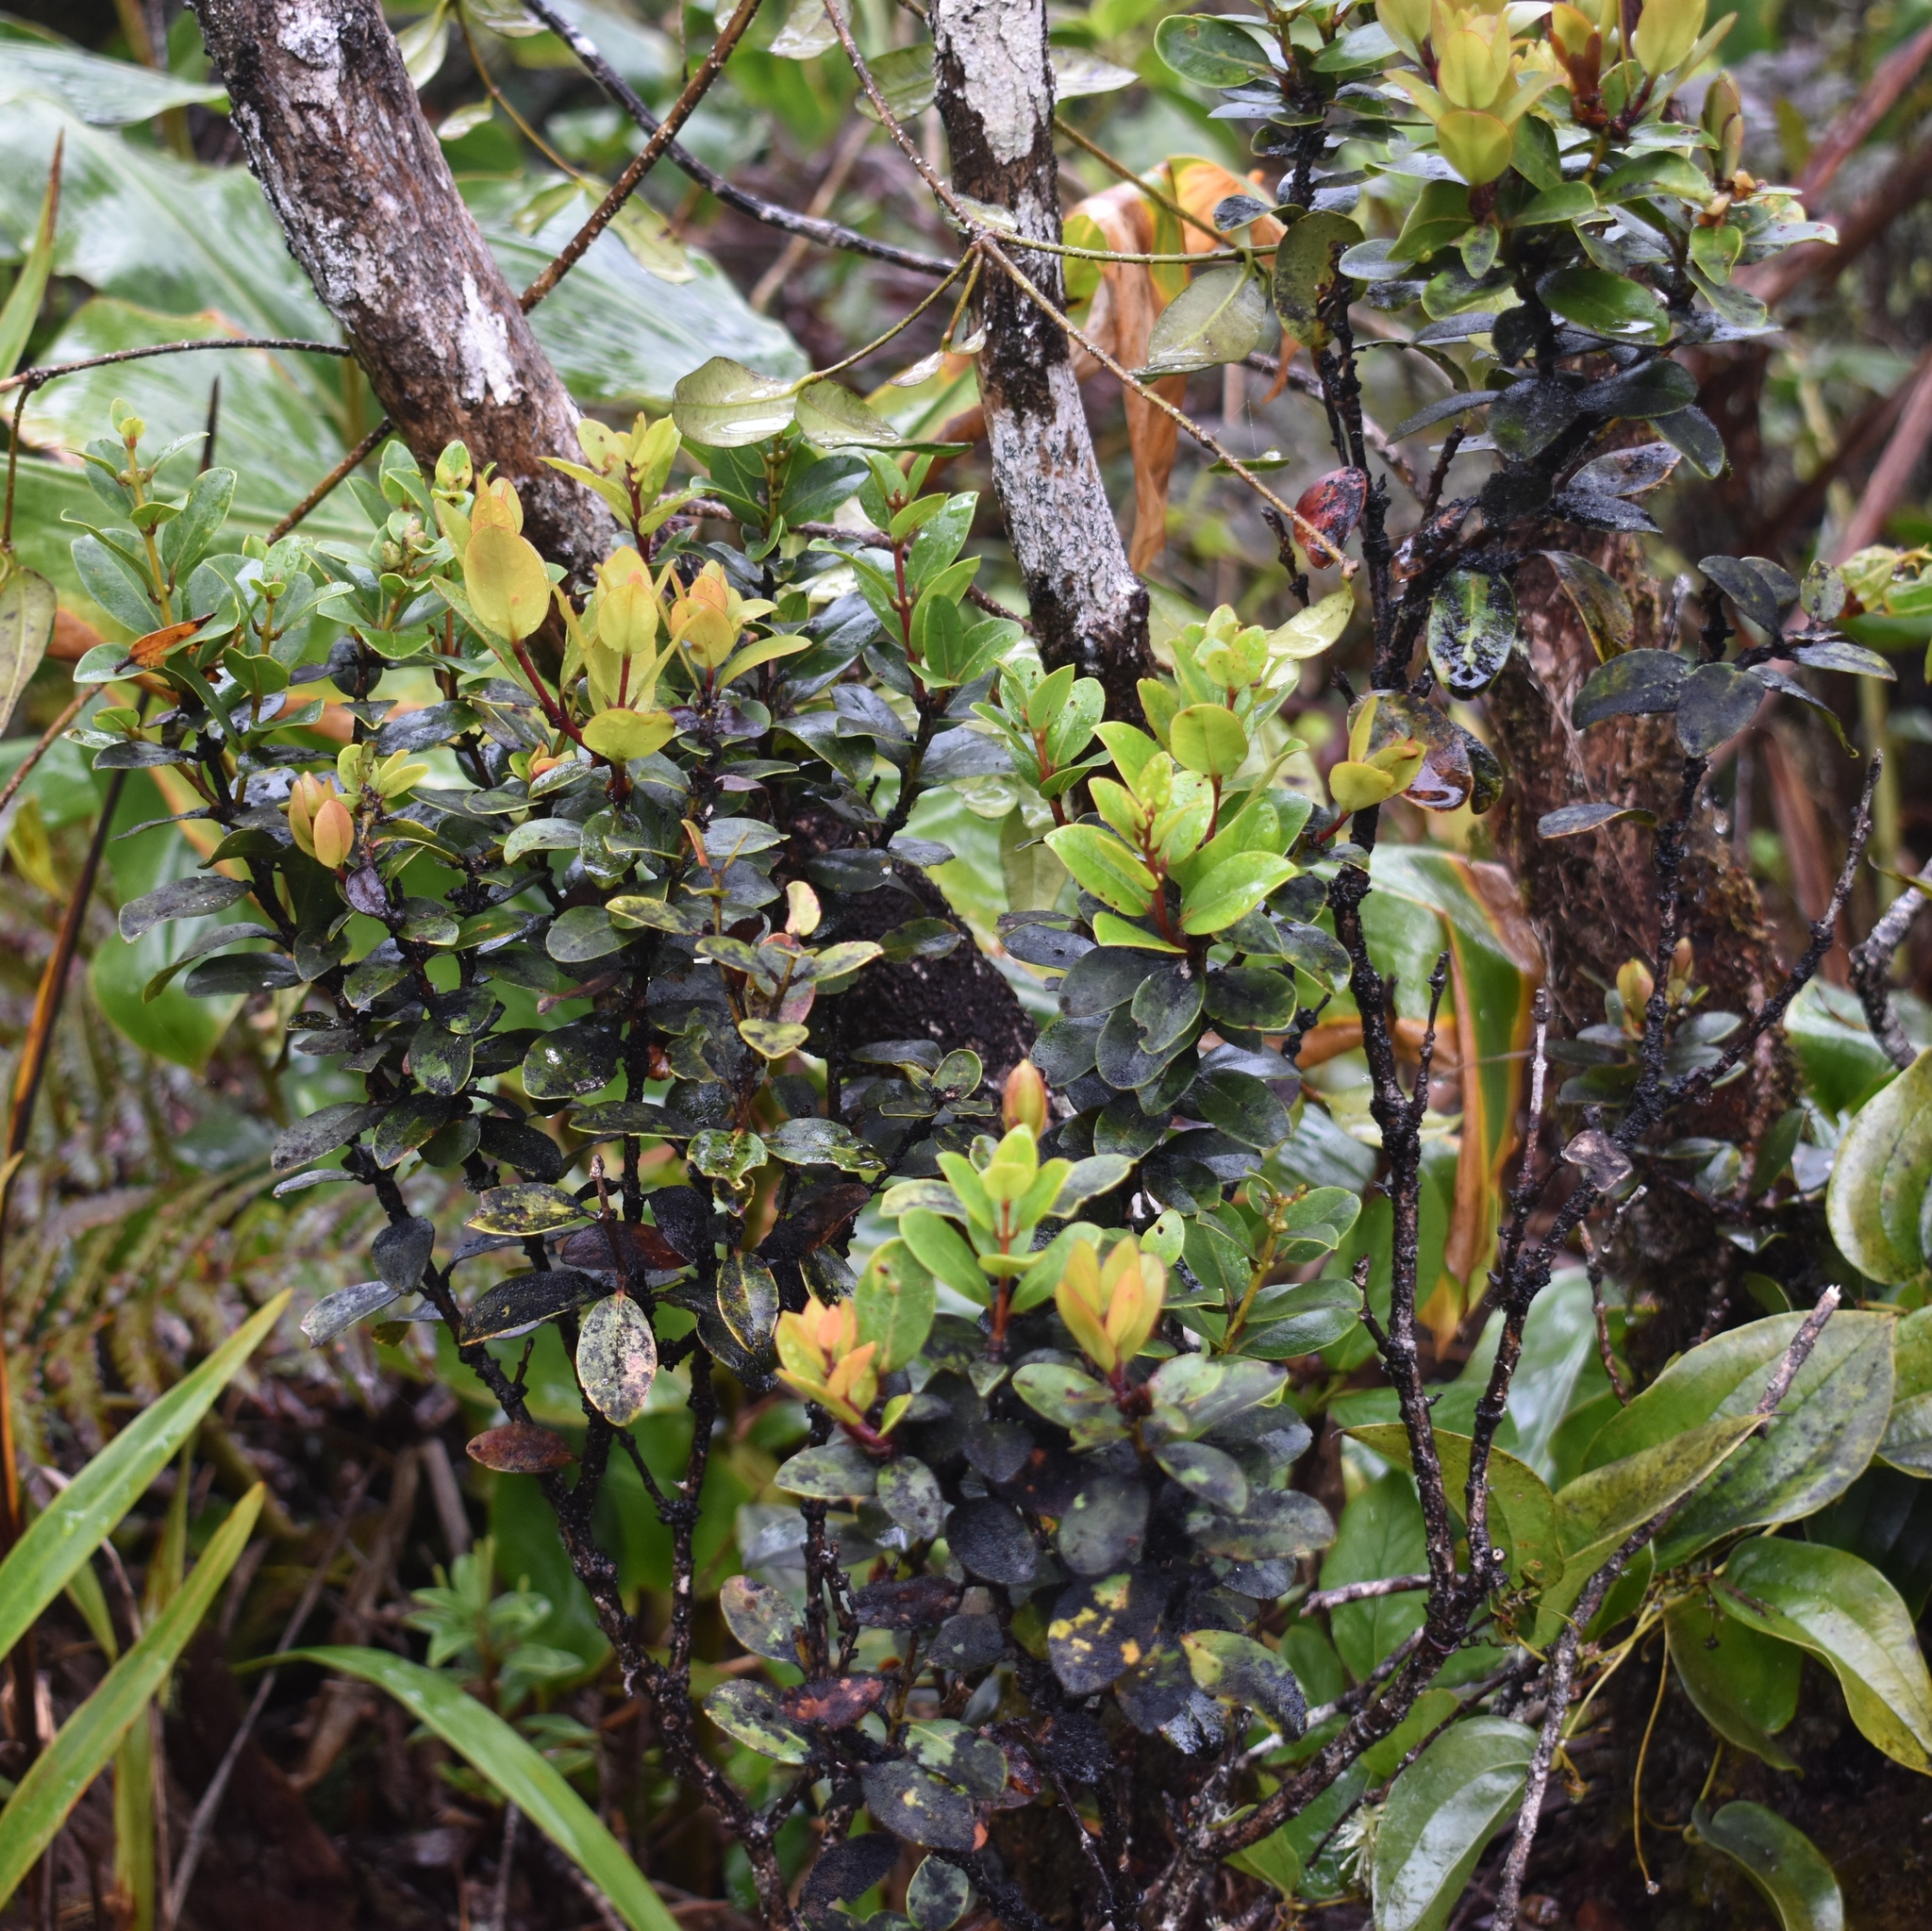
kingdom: Plantae
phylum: Tracheophyta
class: Magnoliopsida
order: Myrtales
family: Myrtaceae
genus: Metrosideros
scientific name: Metrosideros polymorpha
